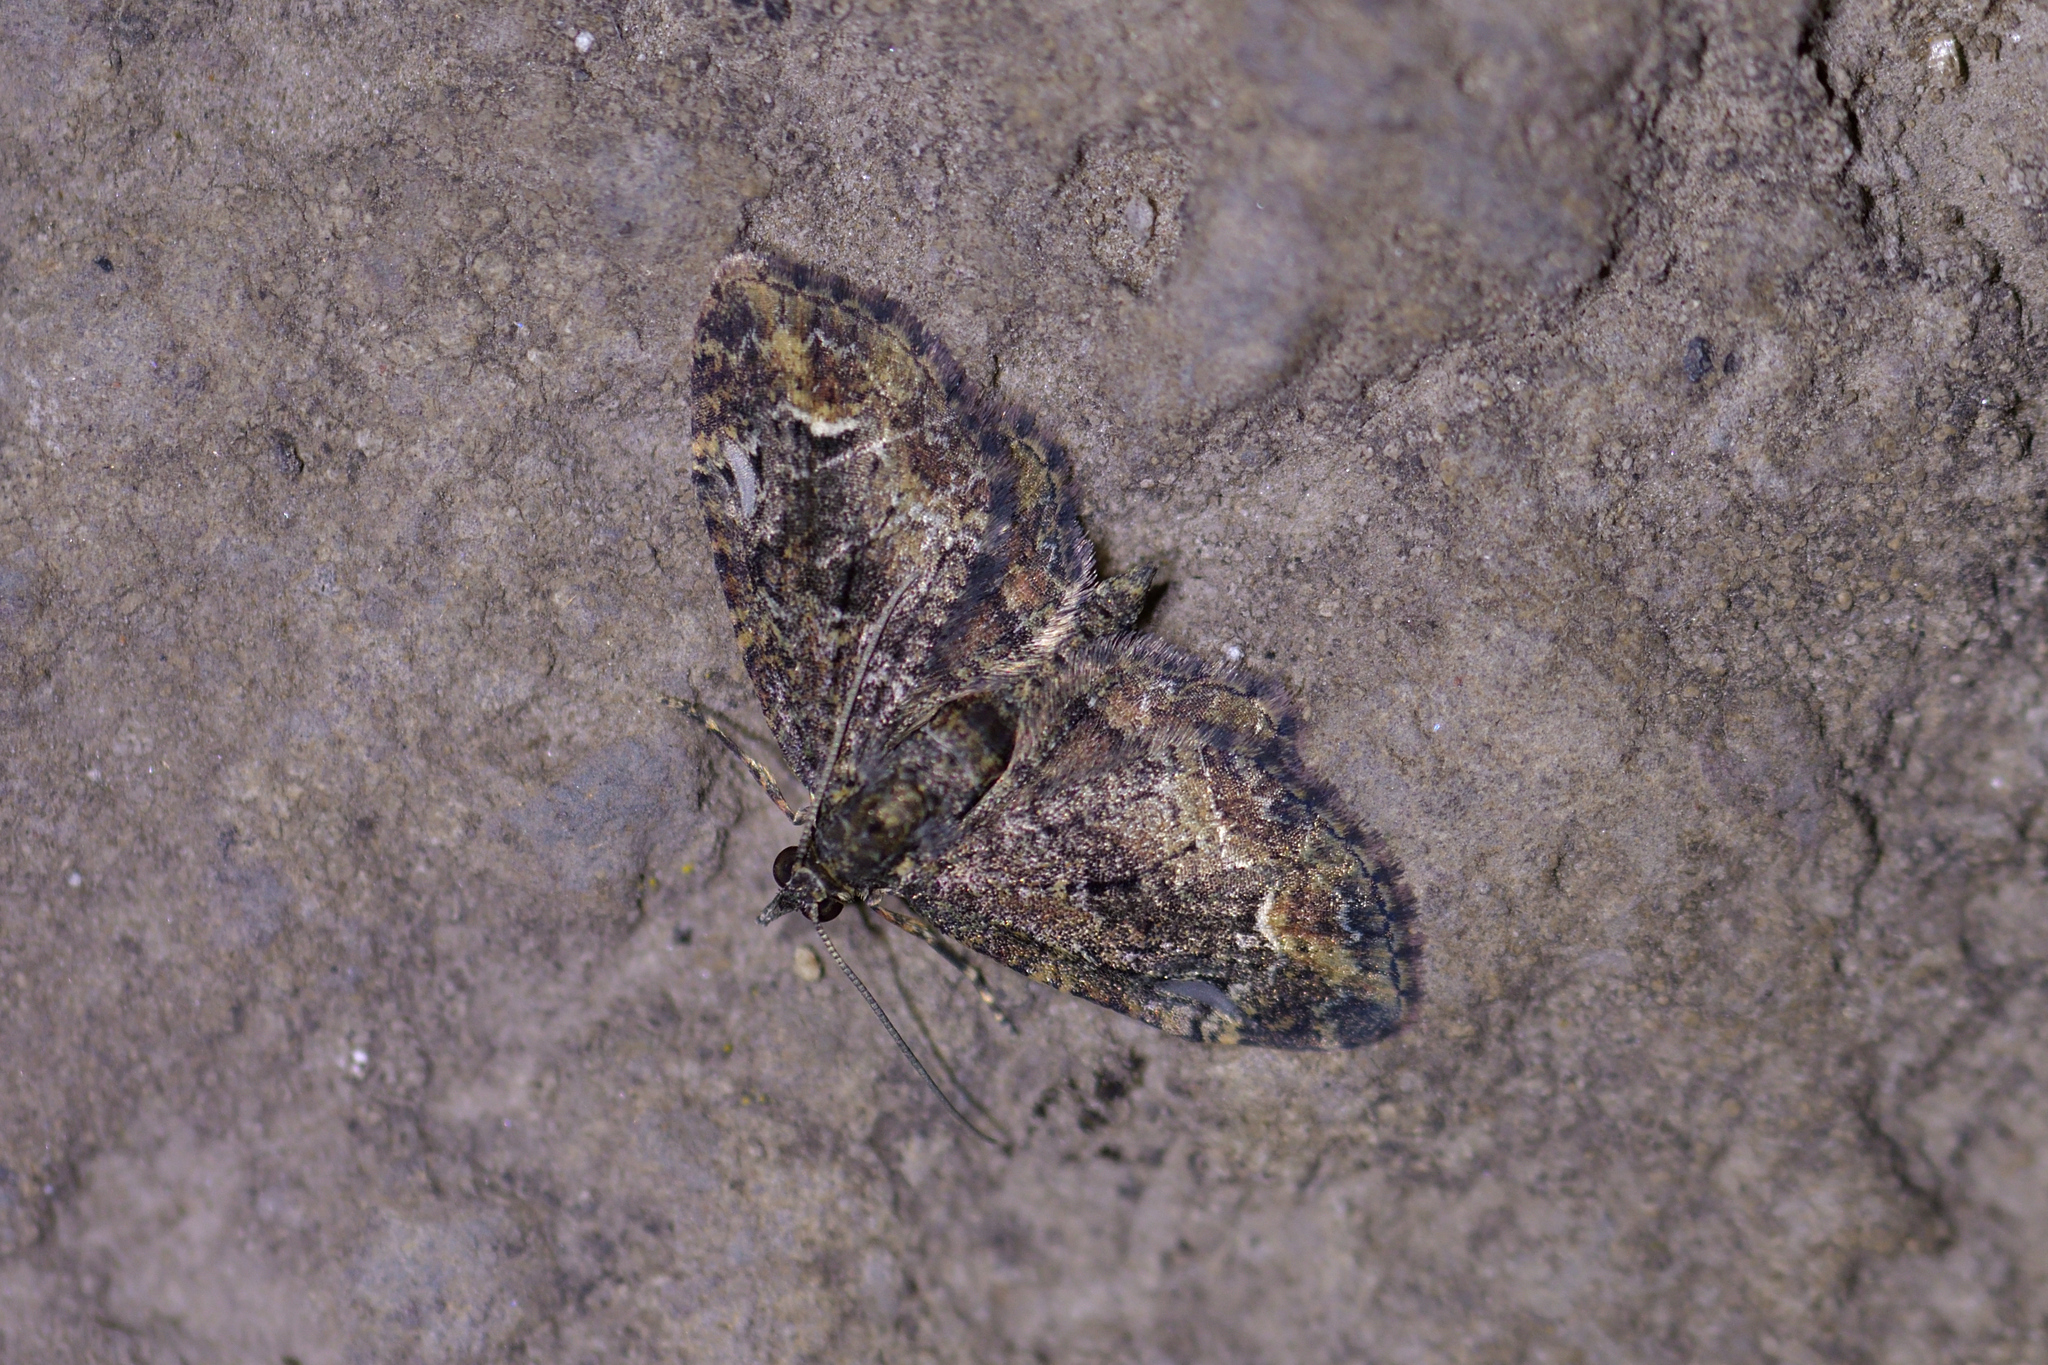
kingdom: Animalia
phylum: Arthropoda
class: Insecta
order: Lepidoptera
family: Geometridae
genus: Pasiphilodes
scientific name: Pasiphilodes testulata
